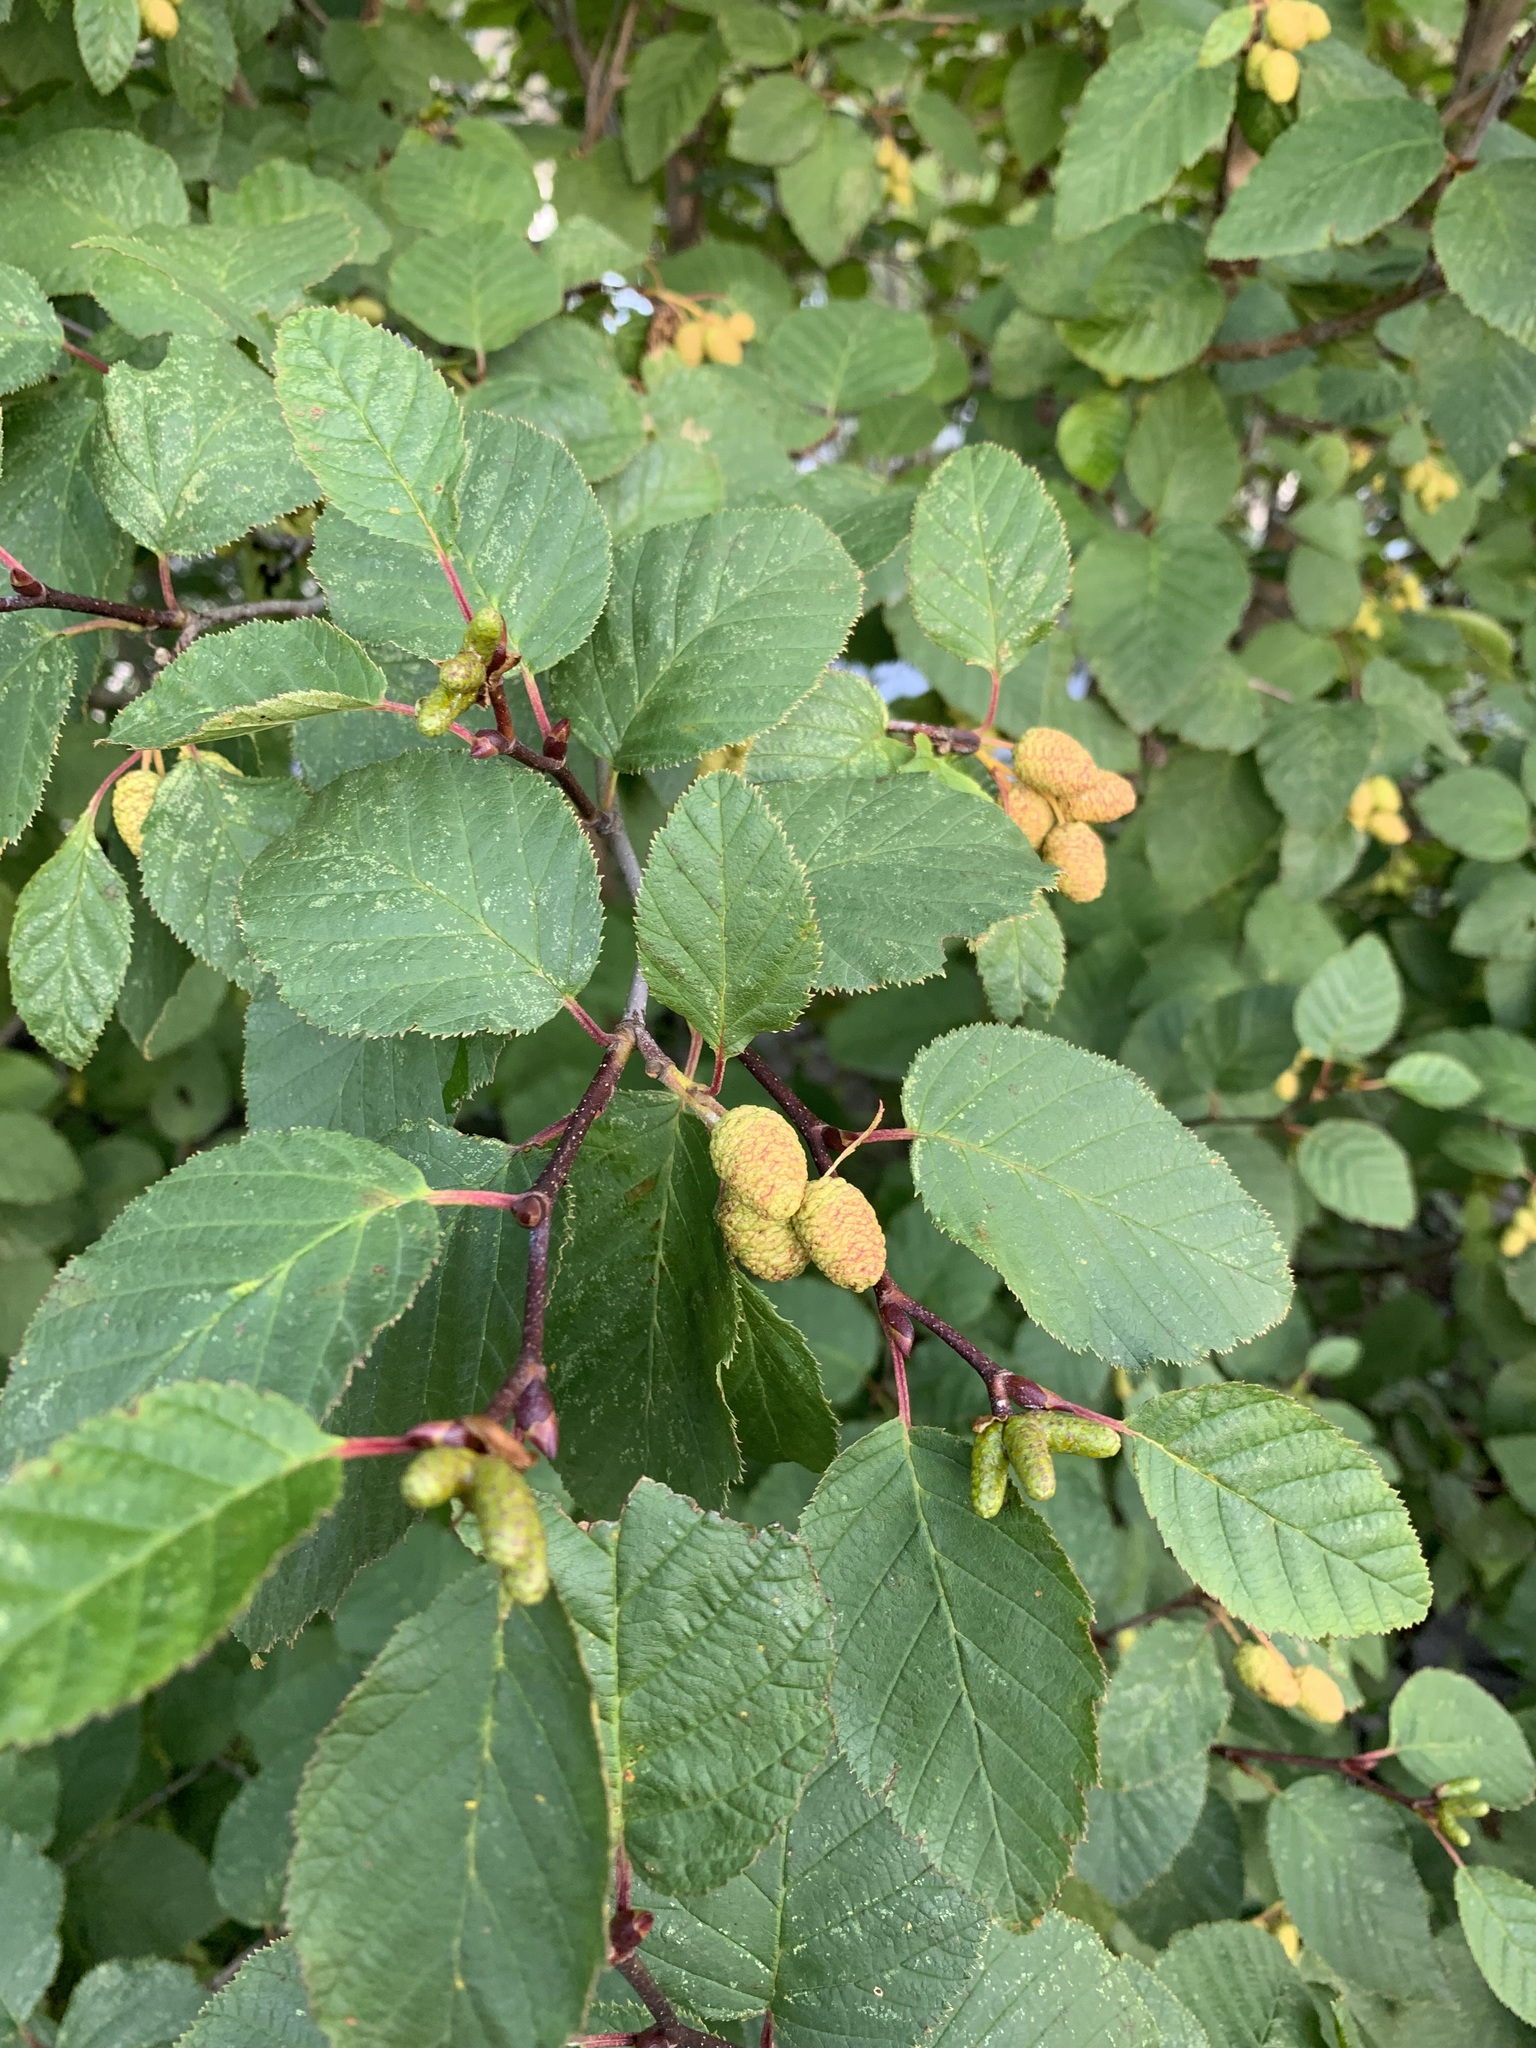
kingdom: Plantae
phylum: Tracheophyta
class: Magnoliopsida
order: Fagales
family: Betulaceae
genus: Alnus
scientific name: Alnus alnobetula
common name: Green alder
